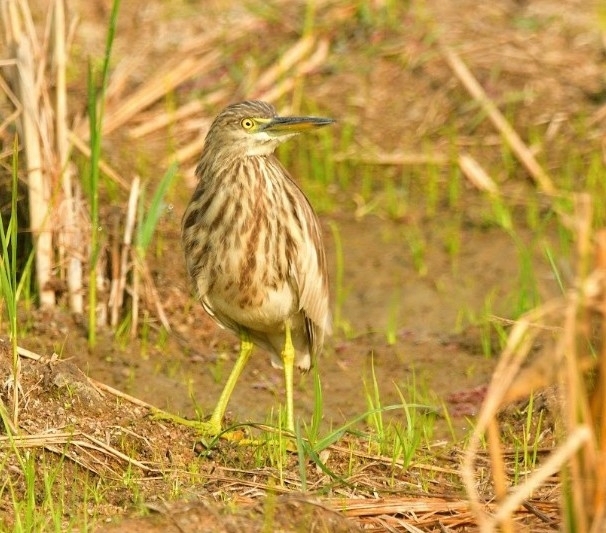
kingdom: Animalia
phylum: Chordata
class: Aves
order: Pelecaniformes
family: Ardeidae
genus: Ardeola
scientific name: Ardeola grayii
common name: Indian pond heron
